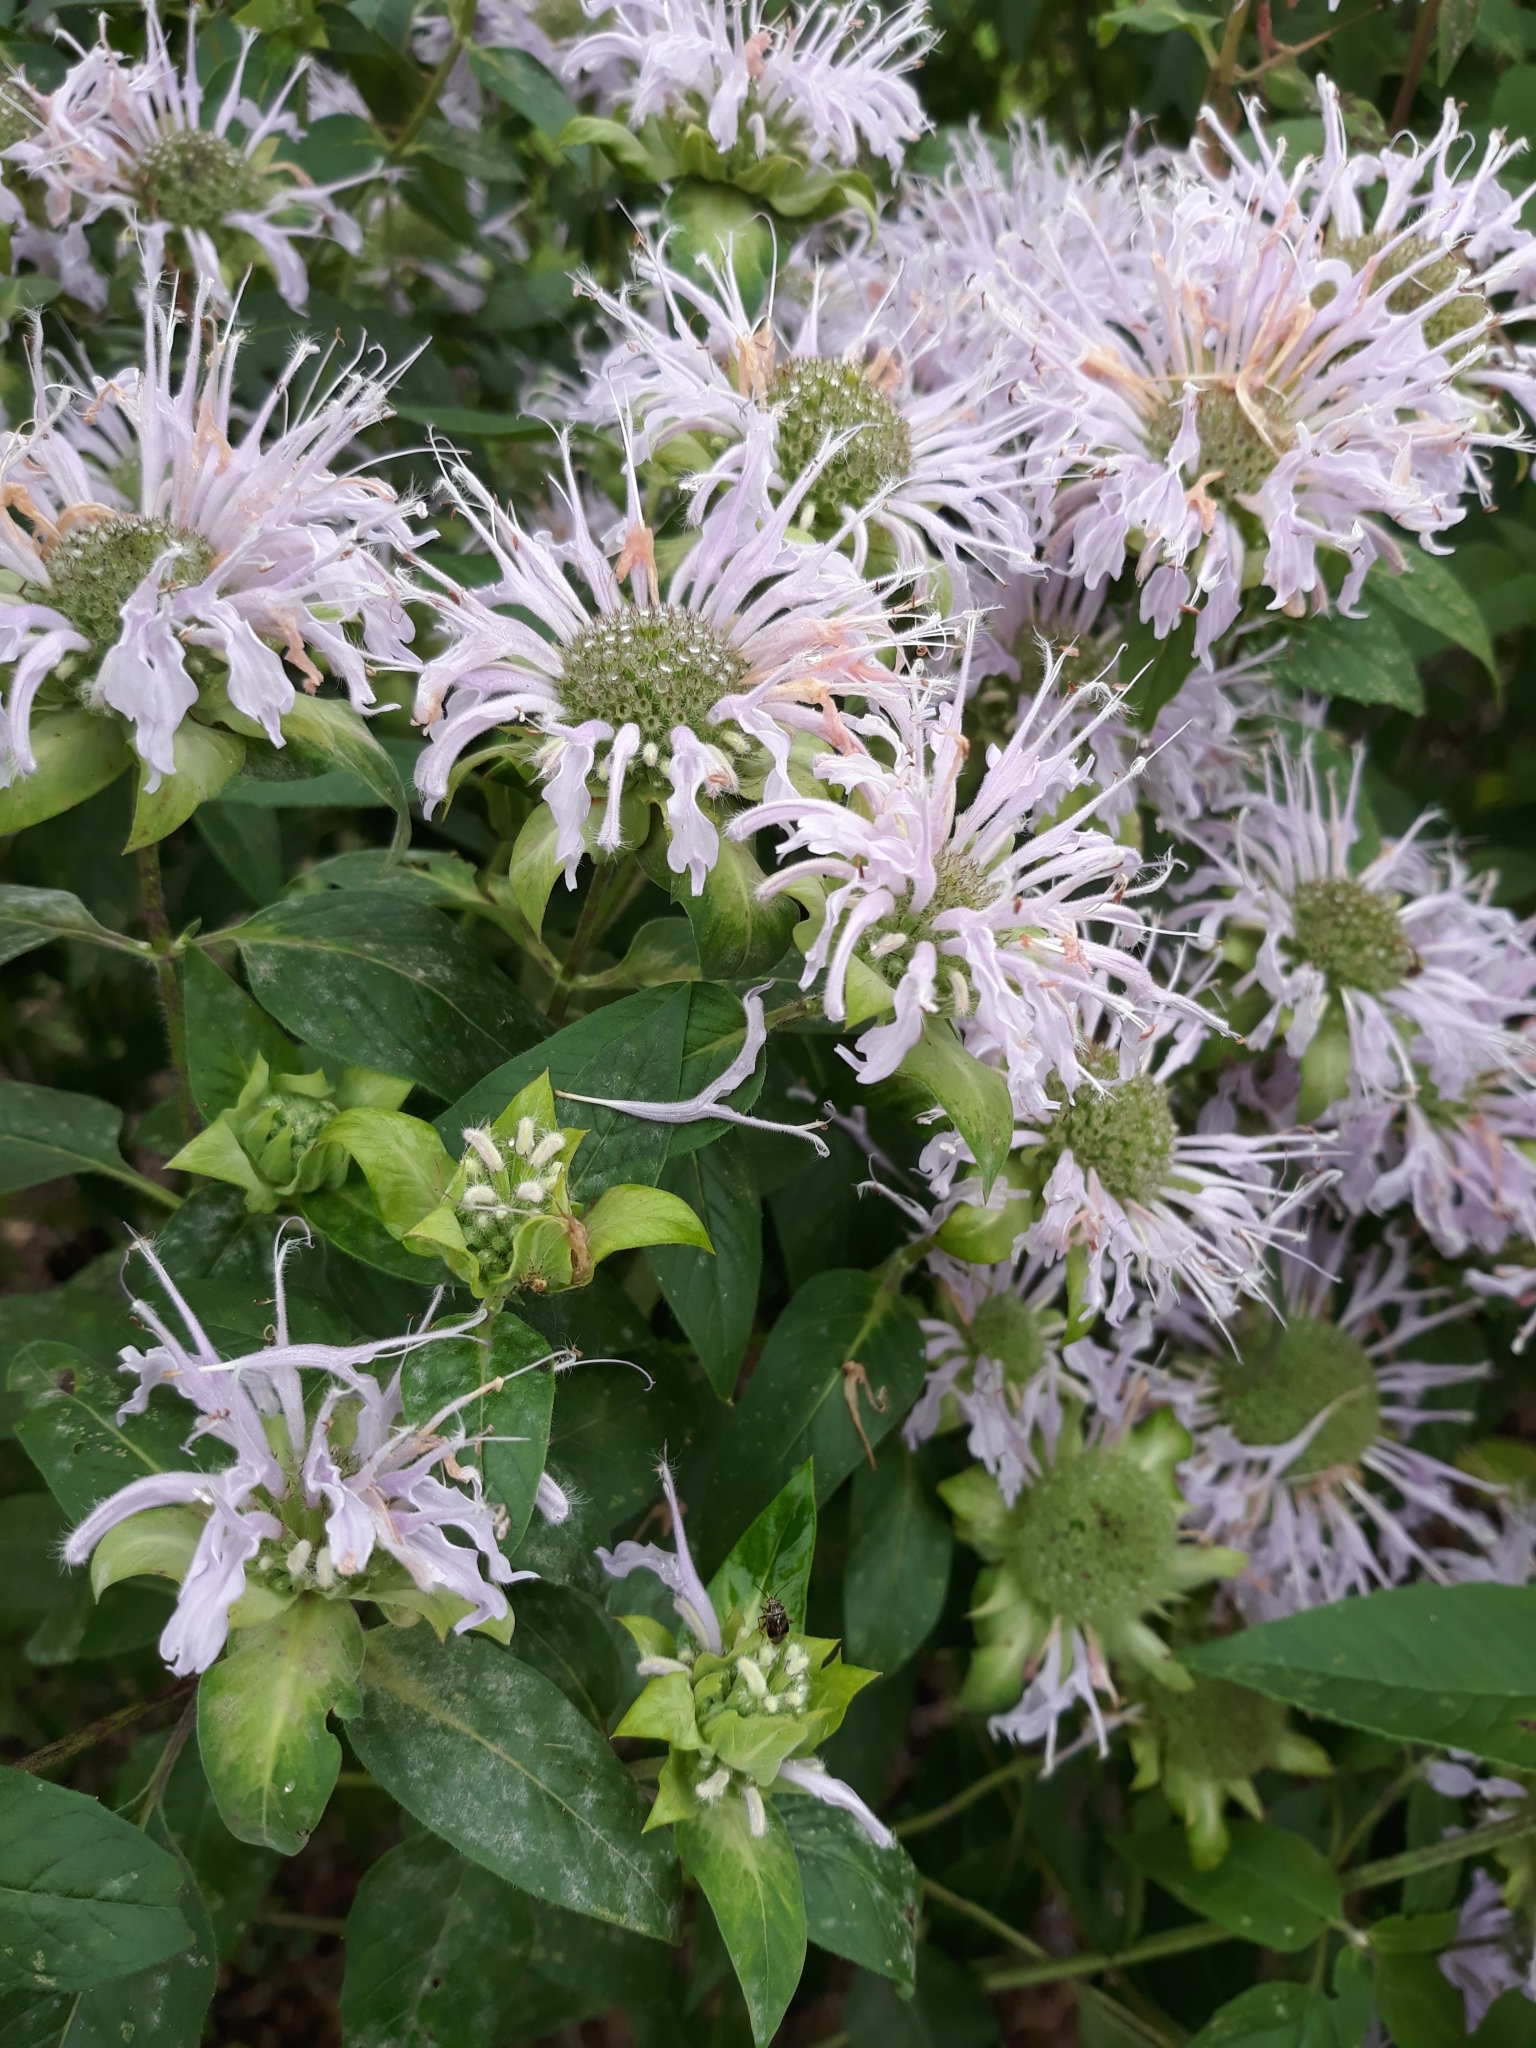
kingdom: Plantae
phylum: Tracheophyta
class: Magnoliopsida
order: Lamiales
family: Lamiaceae
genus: Monarda
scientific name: Monarda fistulosa
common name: Purple beebalm
